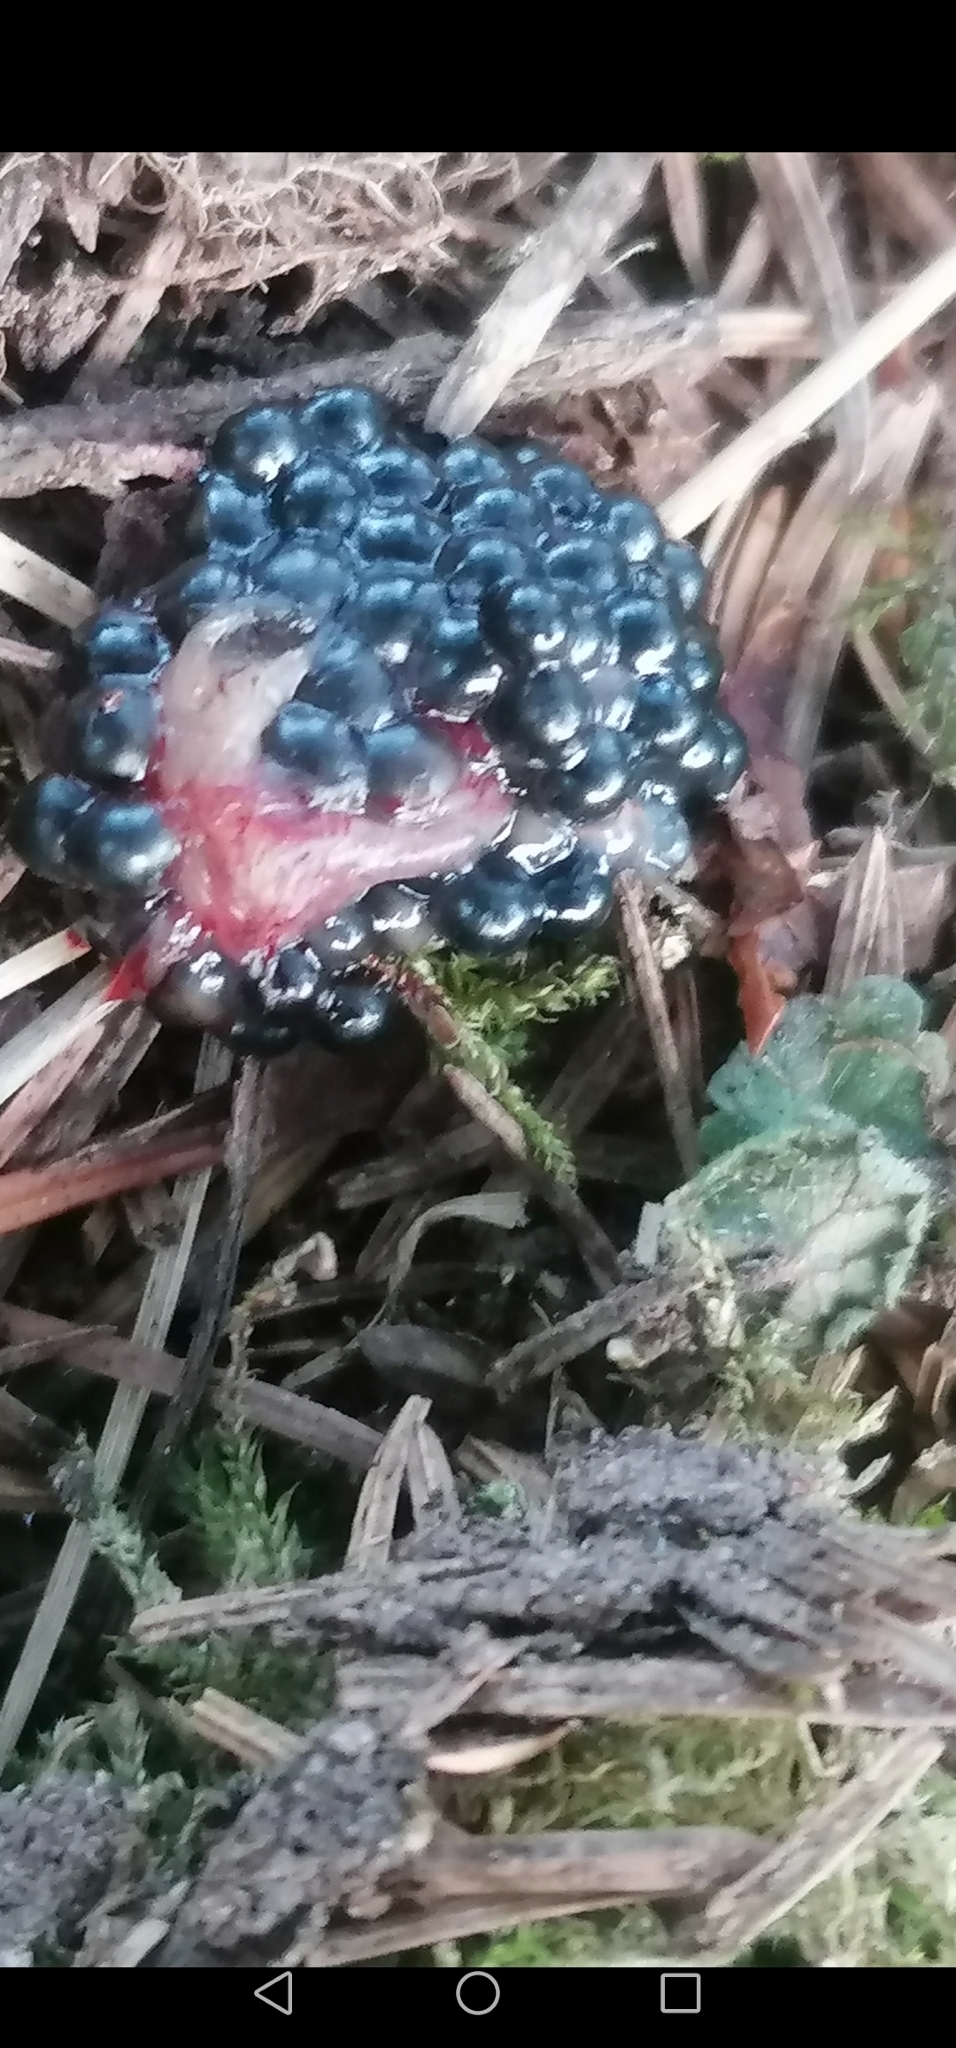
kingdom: Animalia
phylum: Chordata
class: Amphibia
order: Anura
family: Ranidae
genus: Rana
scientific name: Rana temporaria
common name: Common frog
